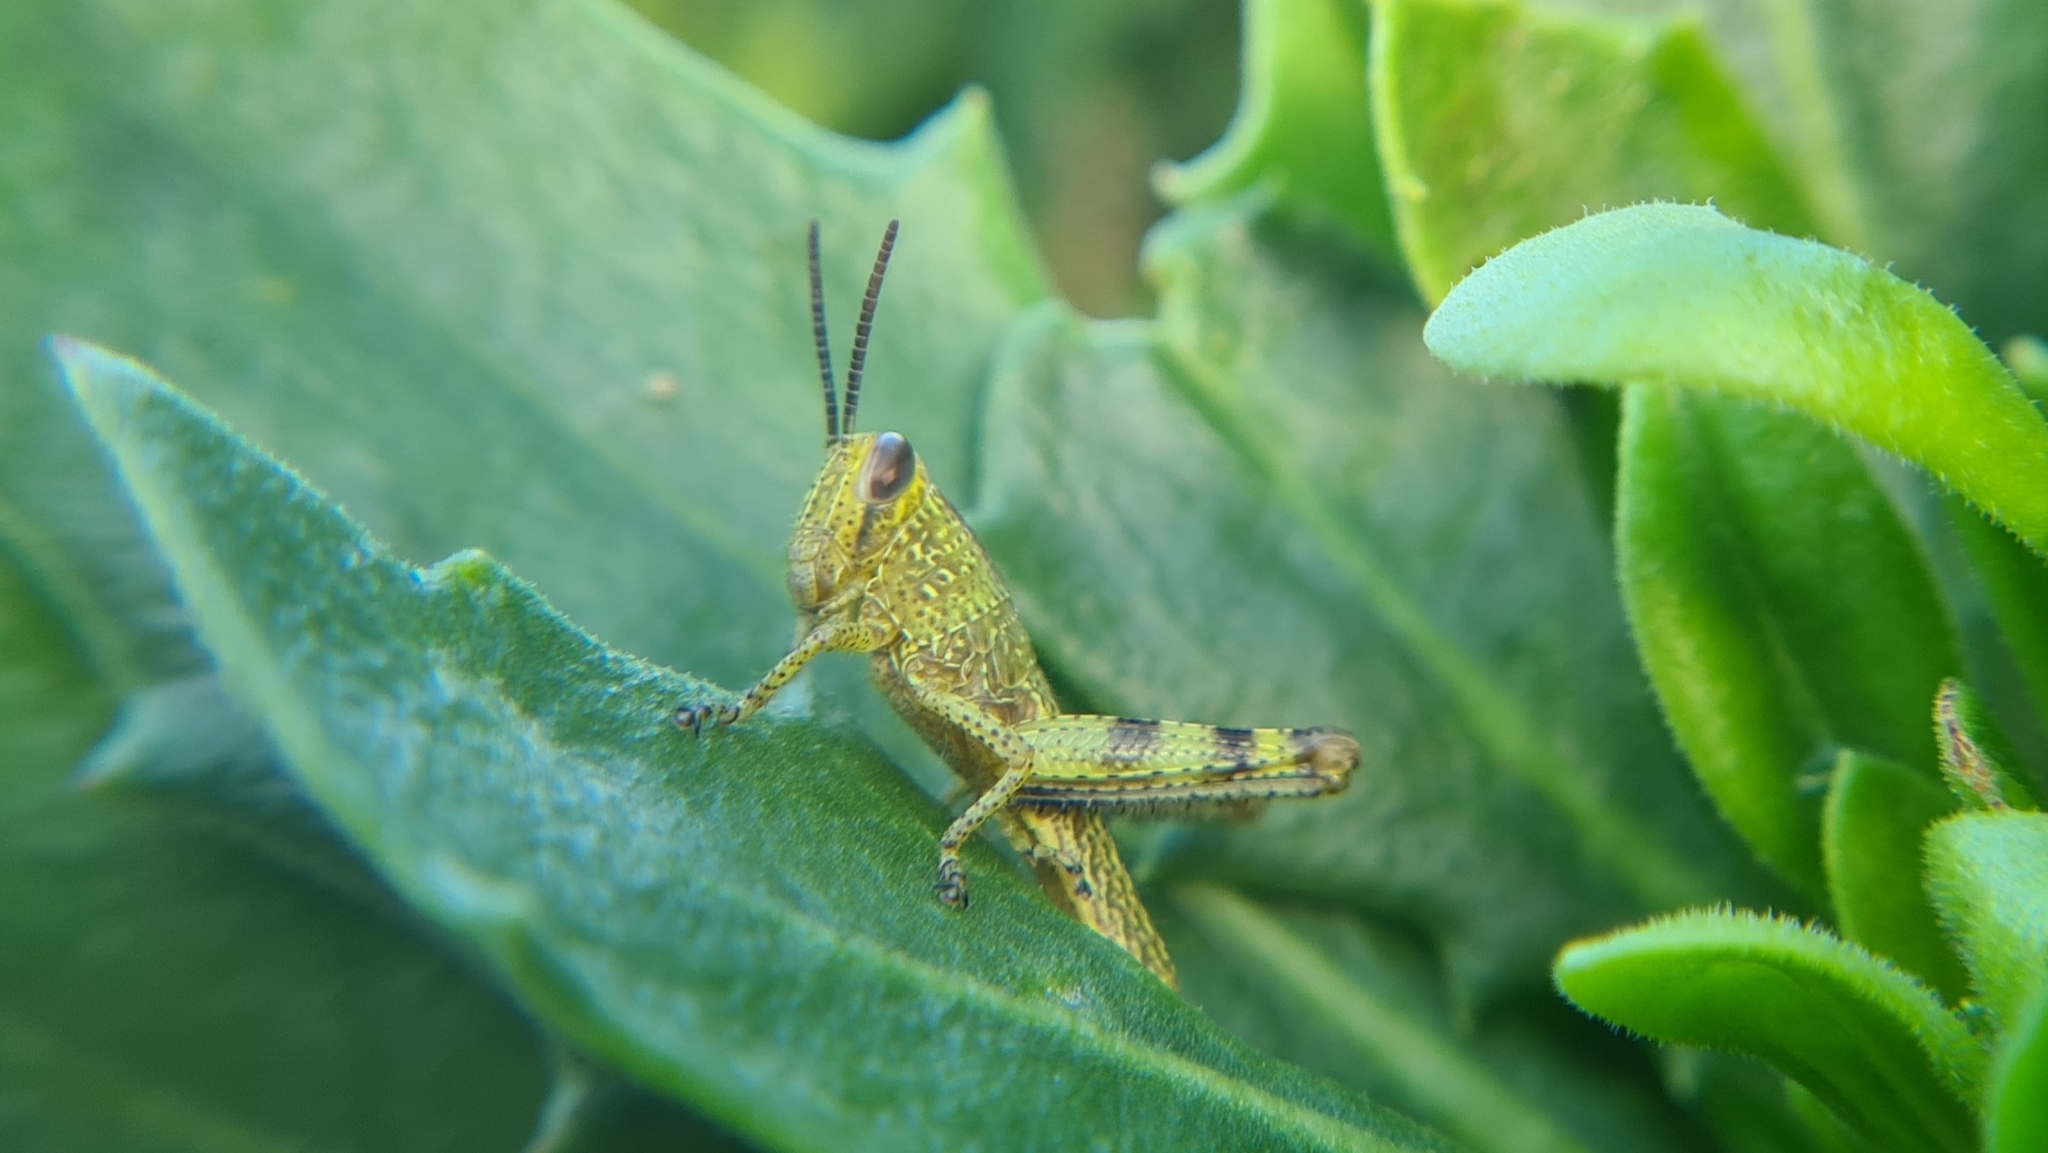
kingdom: Animalia
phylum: Arthropoda
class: Insecta
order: Orthoptera
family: Acrididae
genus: Valanga
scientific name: Valanga irregularis
